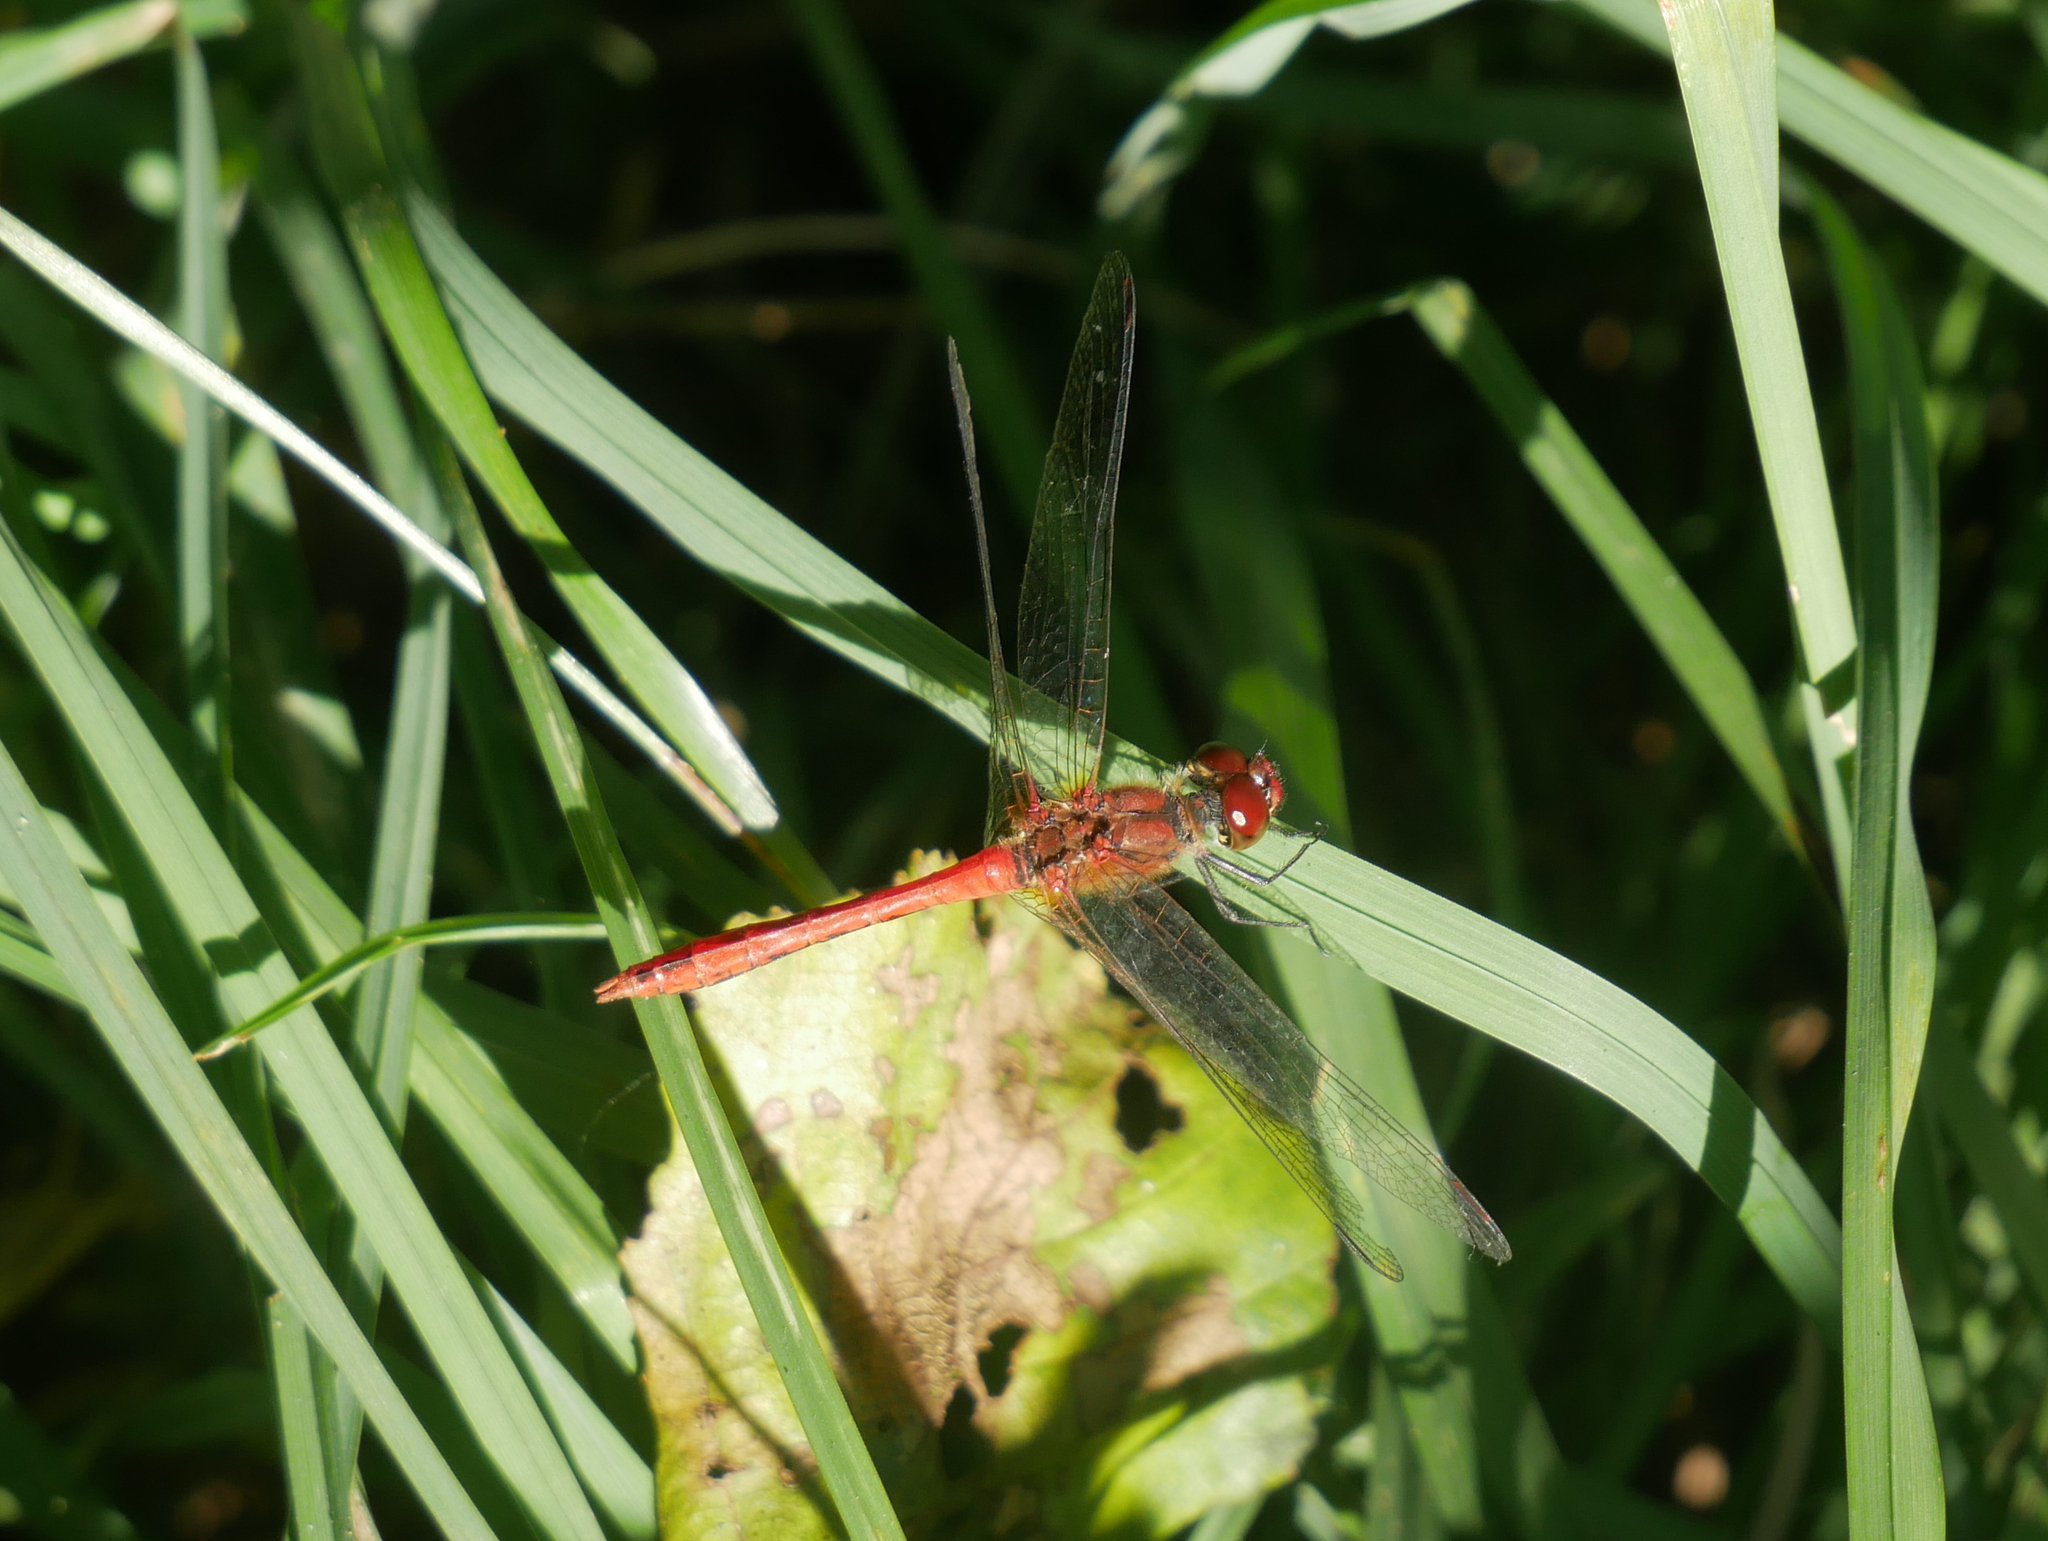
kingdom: Animalia
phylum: Arthropoda
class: Insecta
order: Odonata
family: Libellulidae
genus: Sympetrum
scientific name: Sympetrum sanguineum
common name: Ruddy darter
